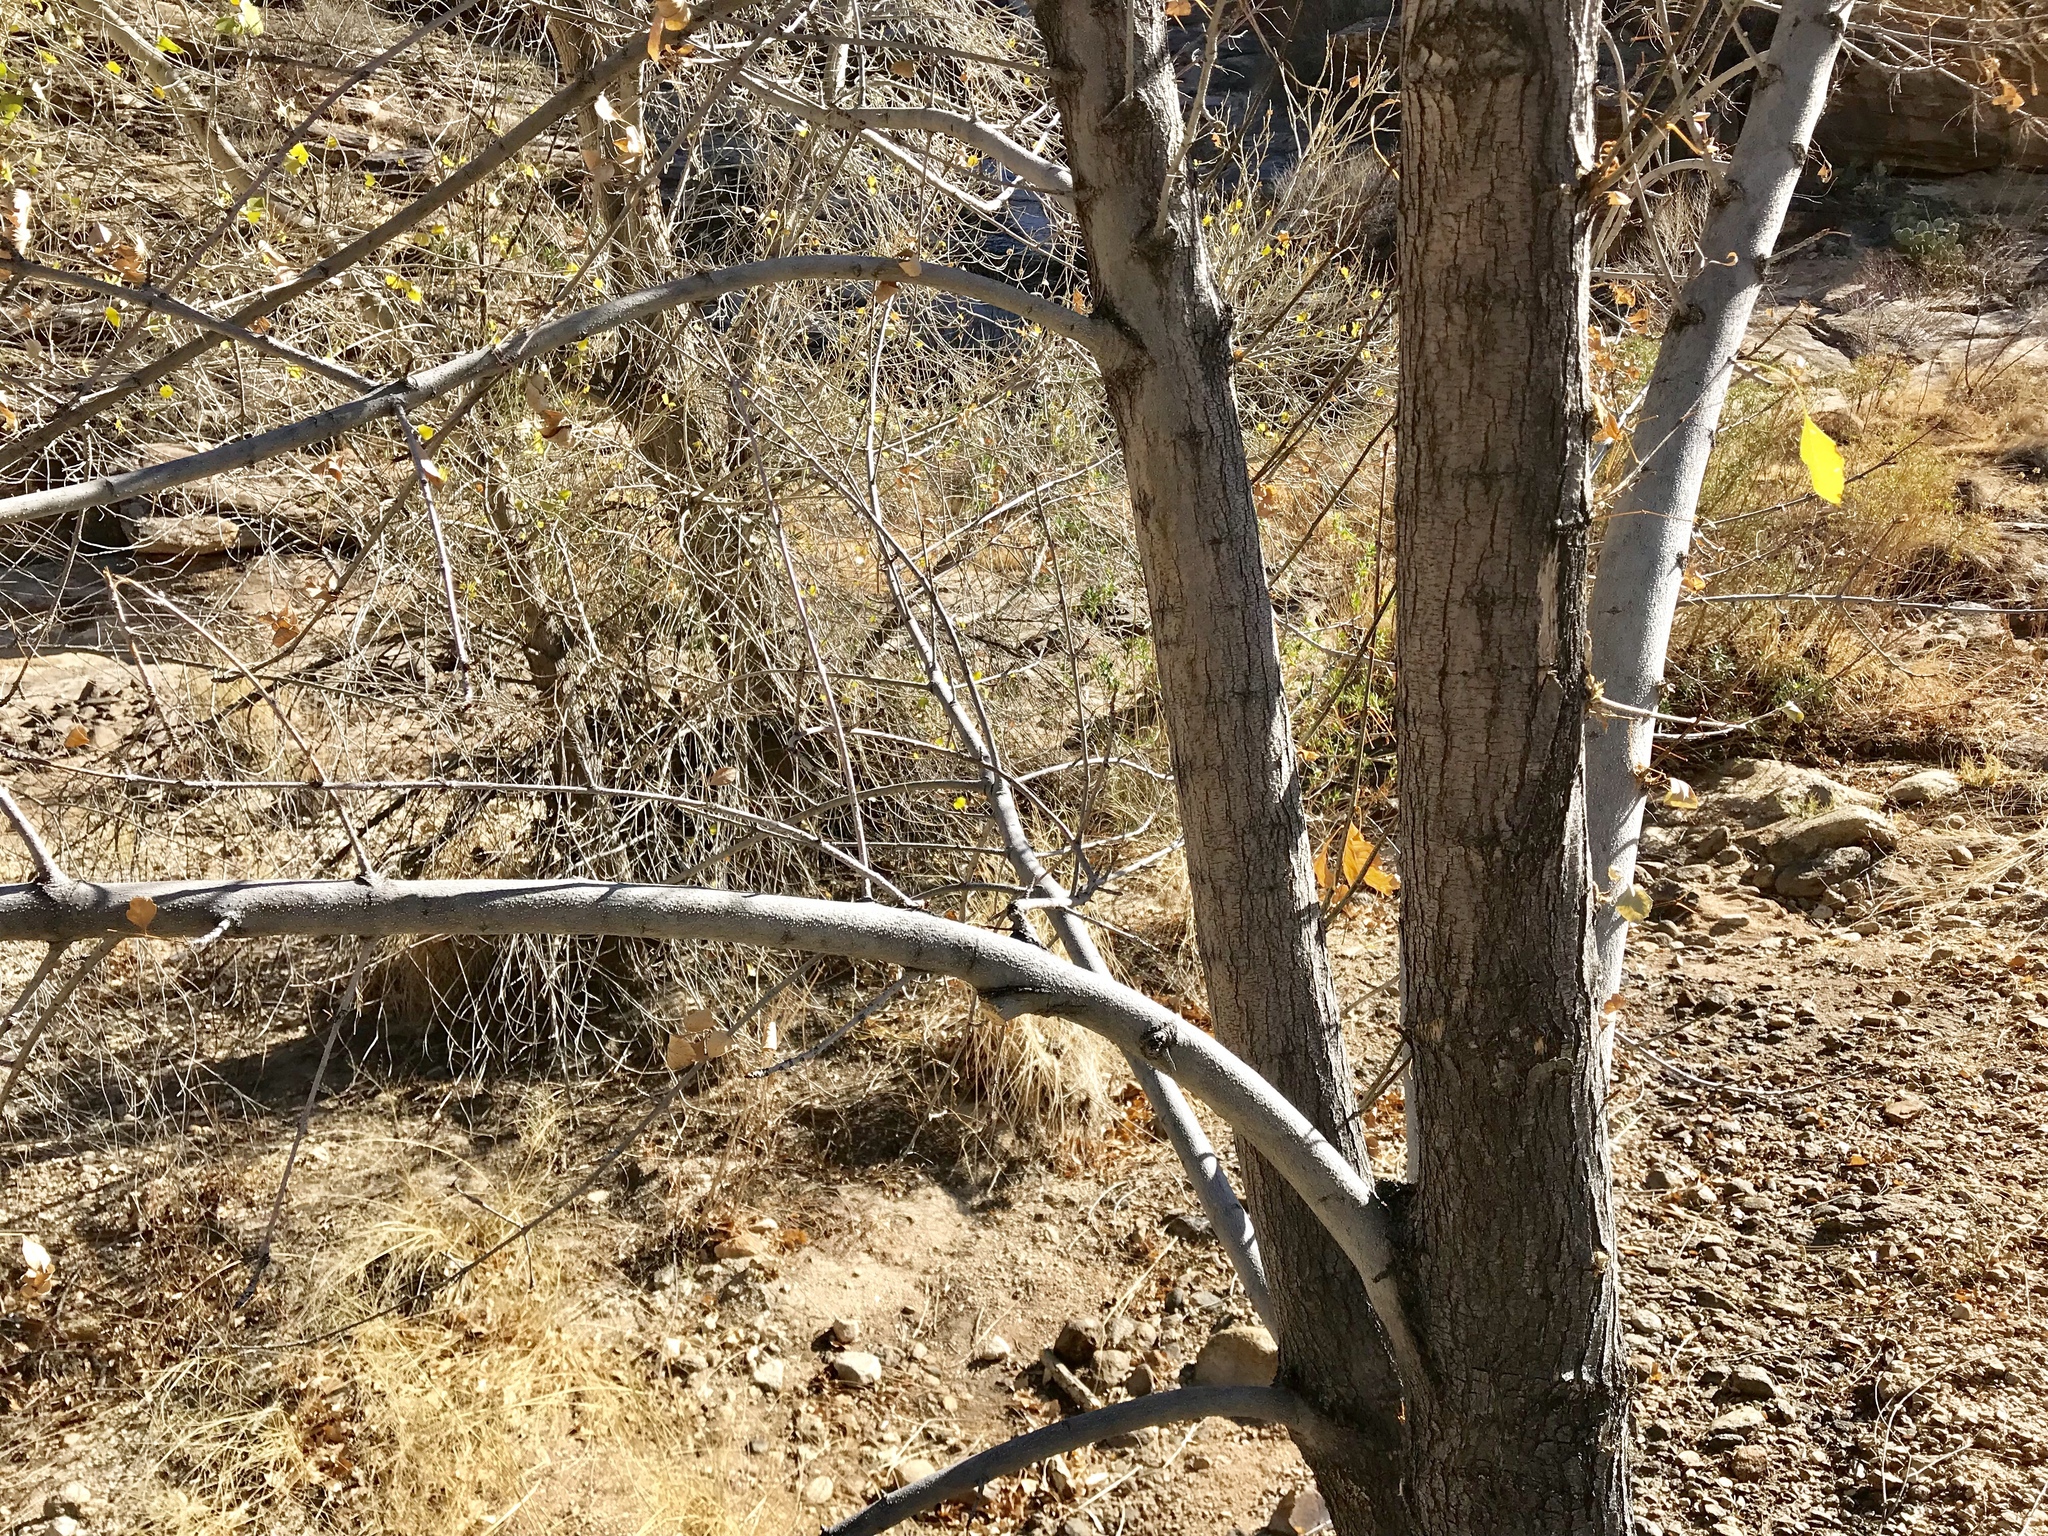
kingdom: Plantae
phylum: Tracheophyta
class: Magnoliopsida
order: Malpighiales
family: Salicaceae
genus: Populus
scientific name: Populus fremontii
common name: Fremont's cottonwood
